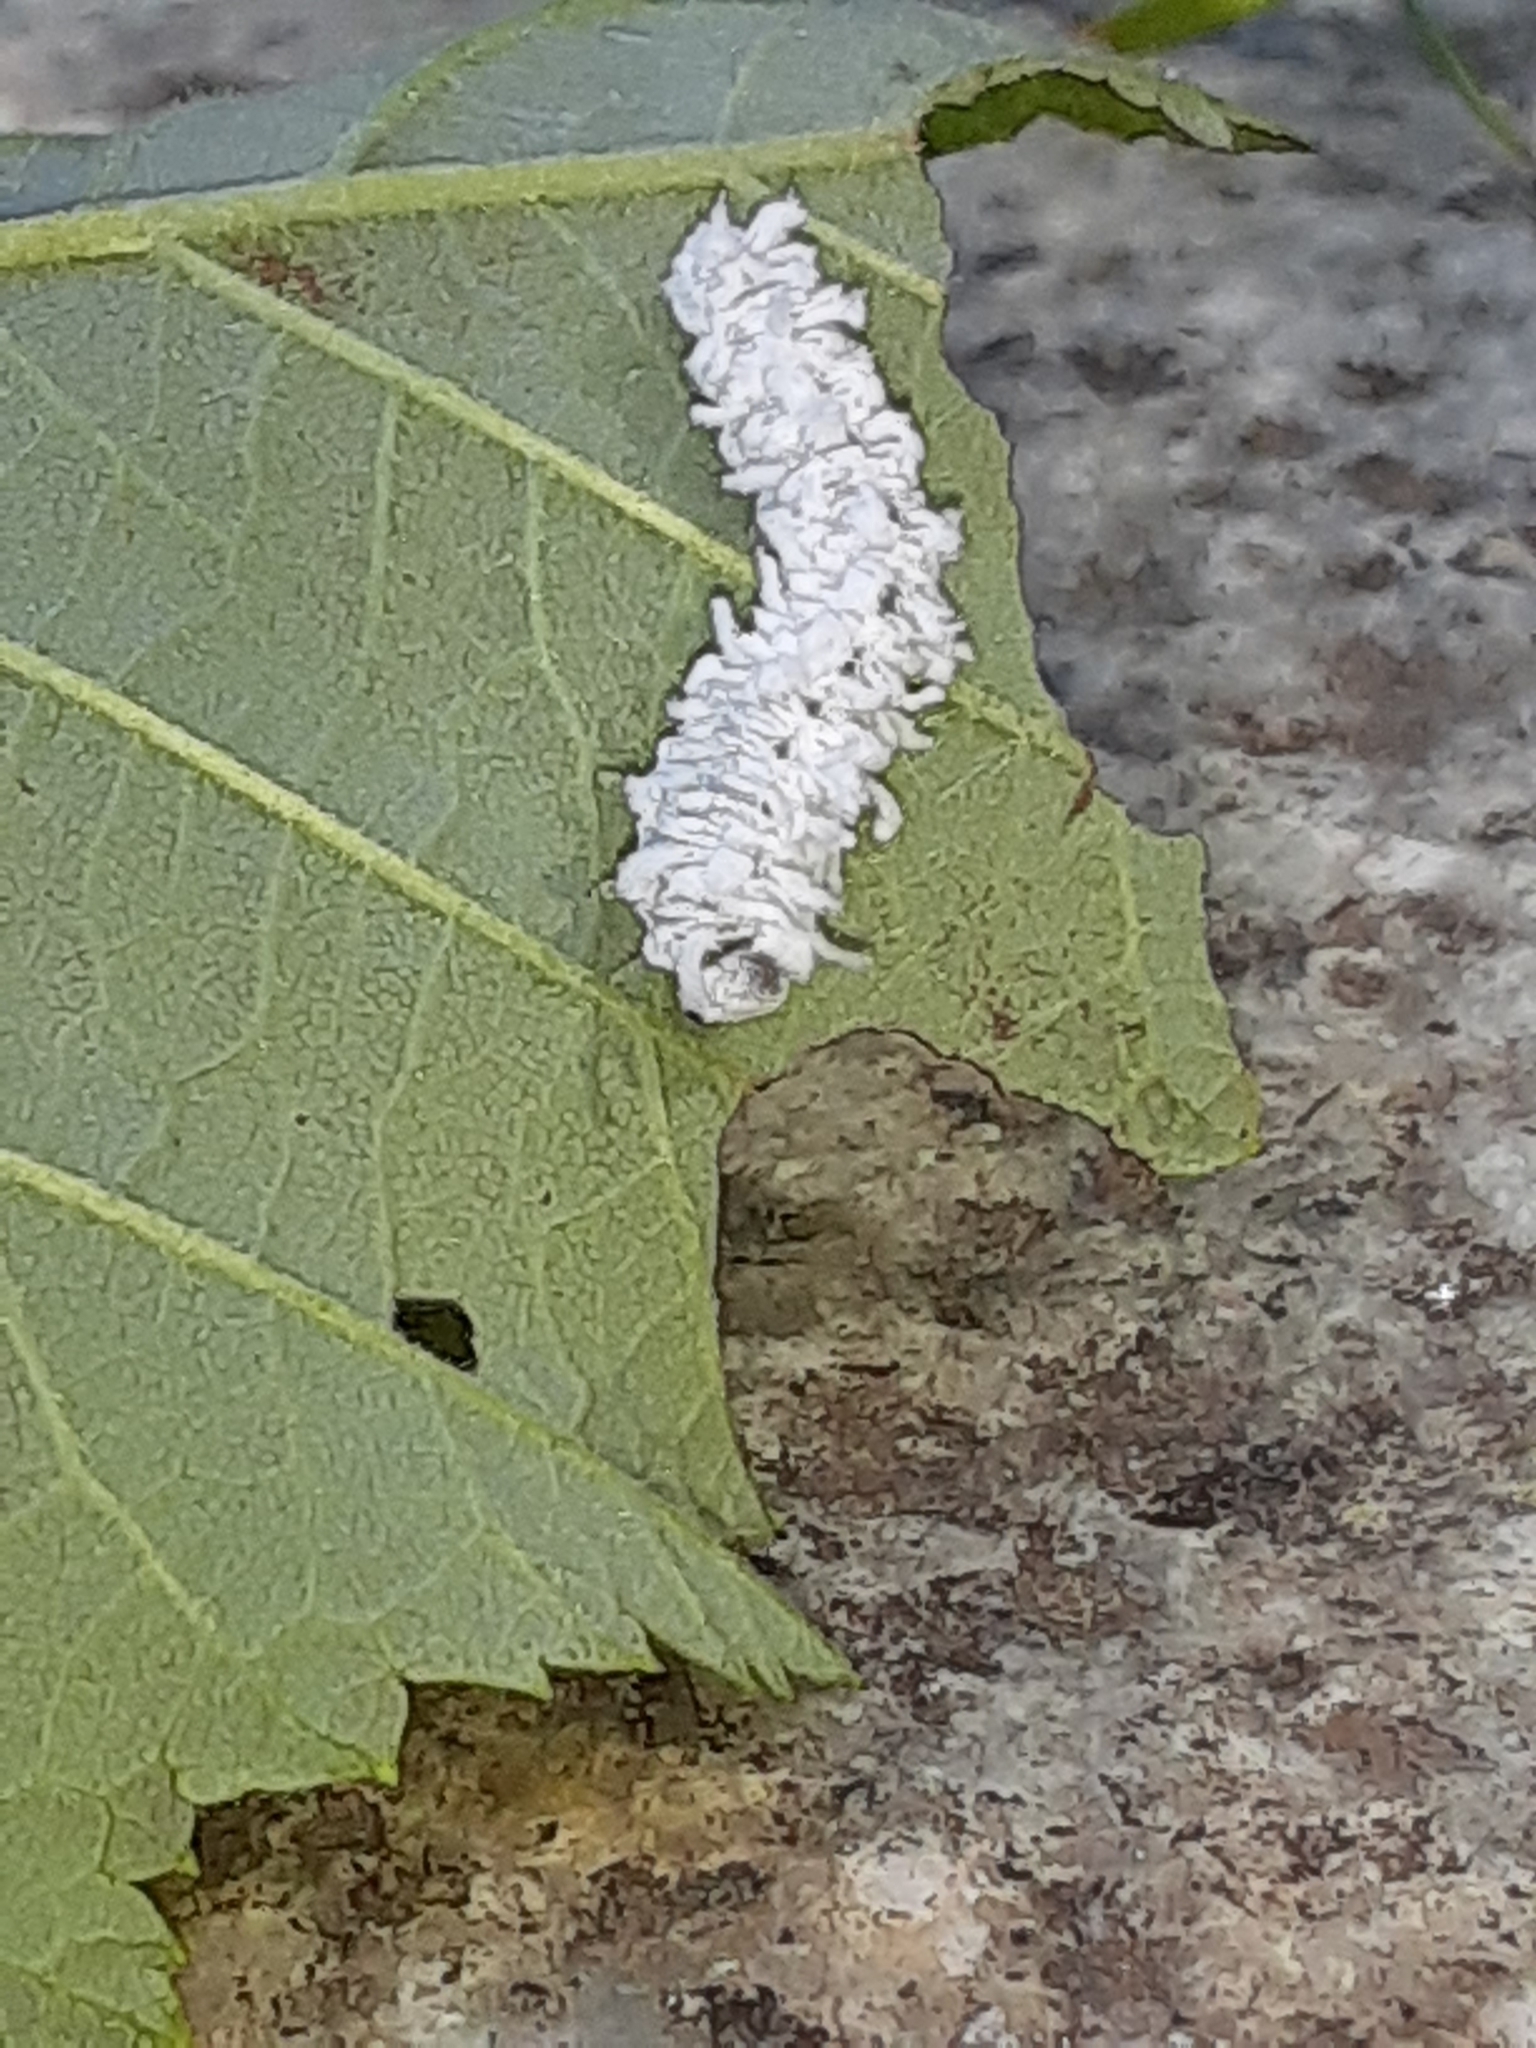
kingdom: Animalia
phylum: Arthropoda
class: Insecta
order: Hymenoptera
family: Tenthredinidae
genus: Eriocampa
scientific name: Eriocampa ovata
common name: Alder wooly sawfly
